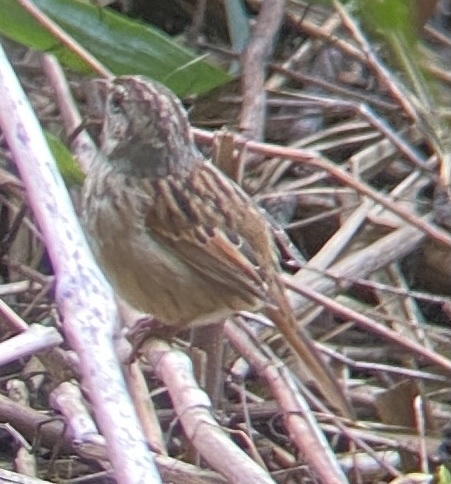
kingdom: Animalia
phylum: Chordata
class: Aves
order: Passeriformes
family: Passerellidae
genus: Melospiza
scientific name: Melospiza georgiana
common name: Swamp sparrow
